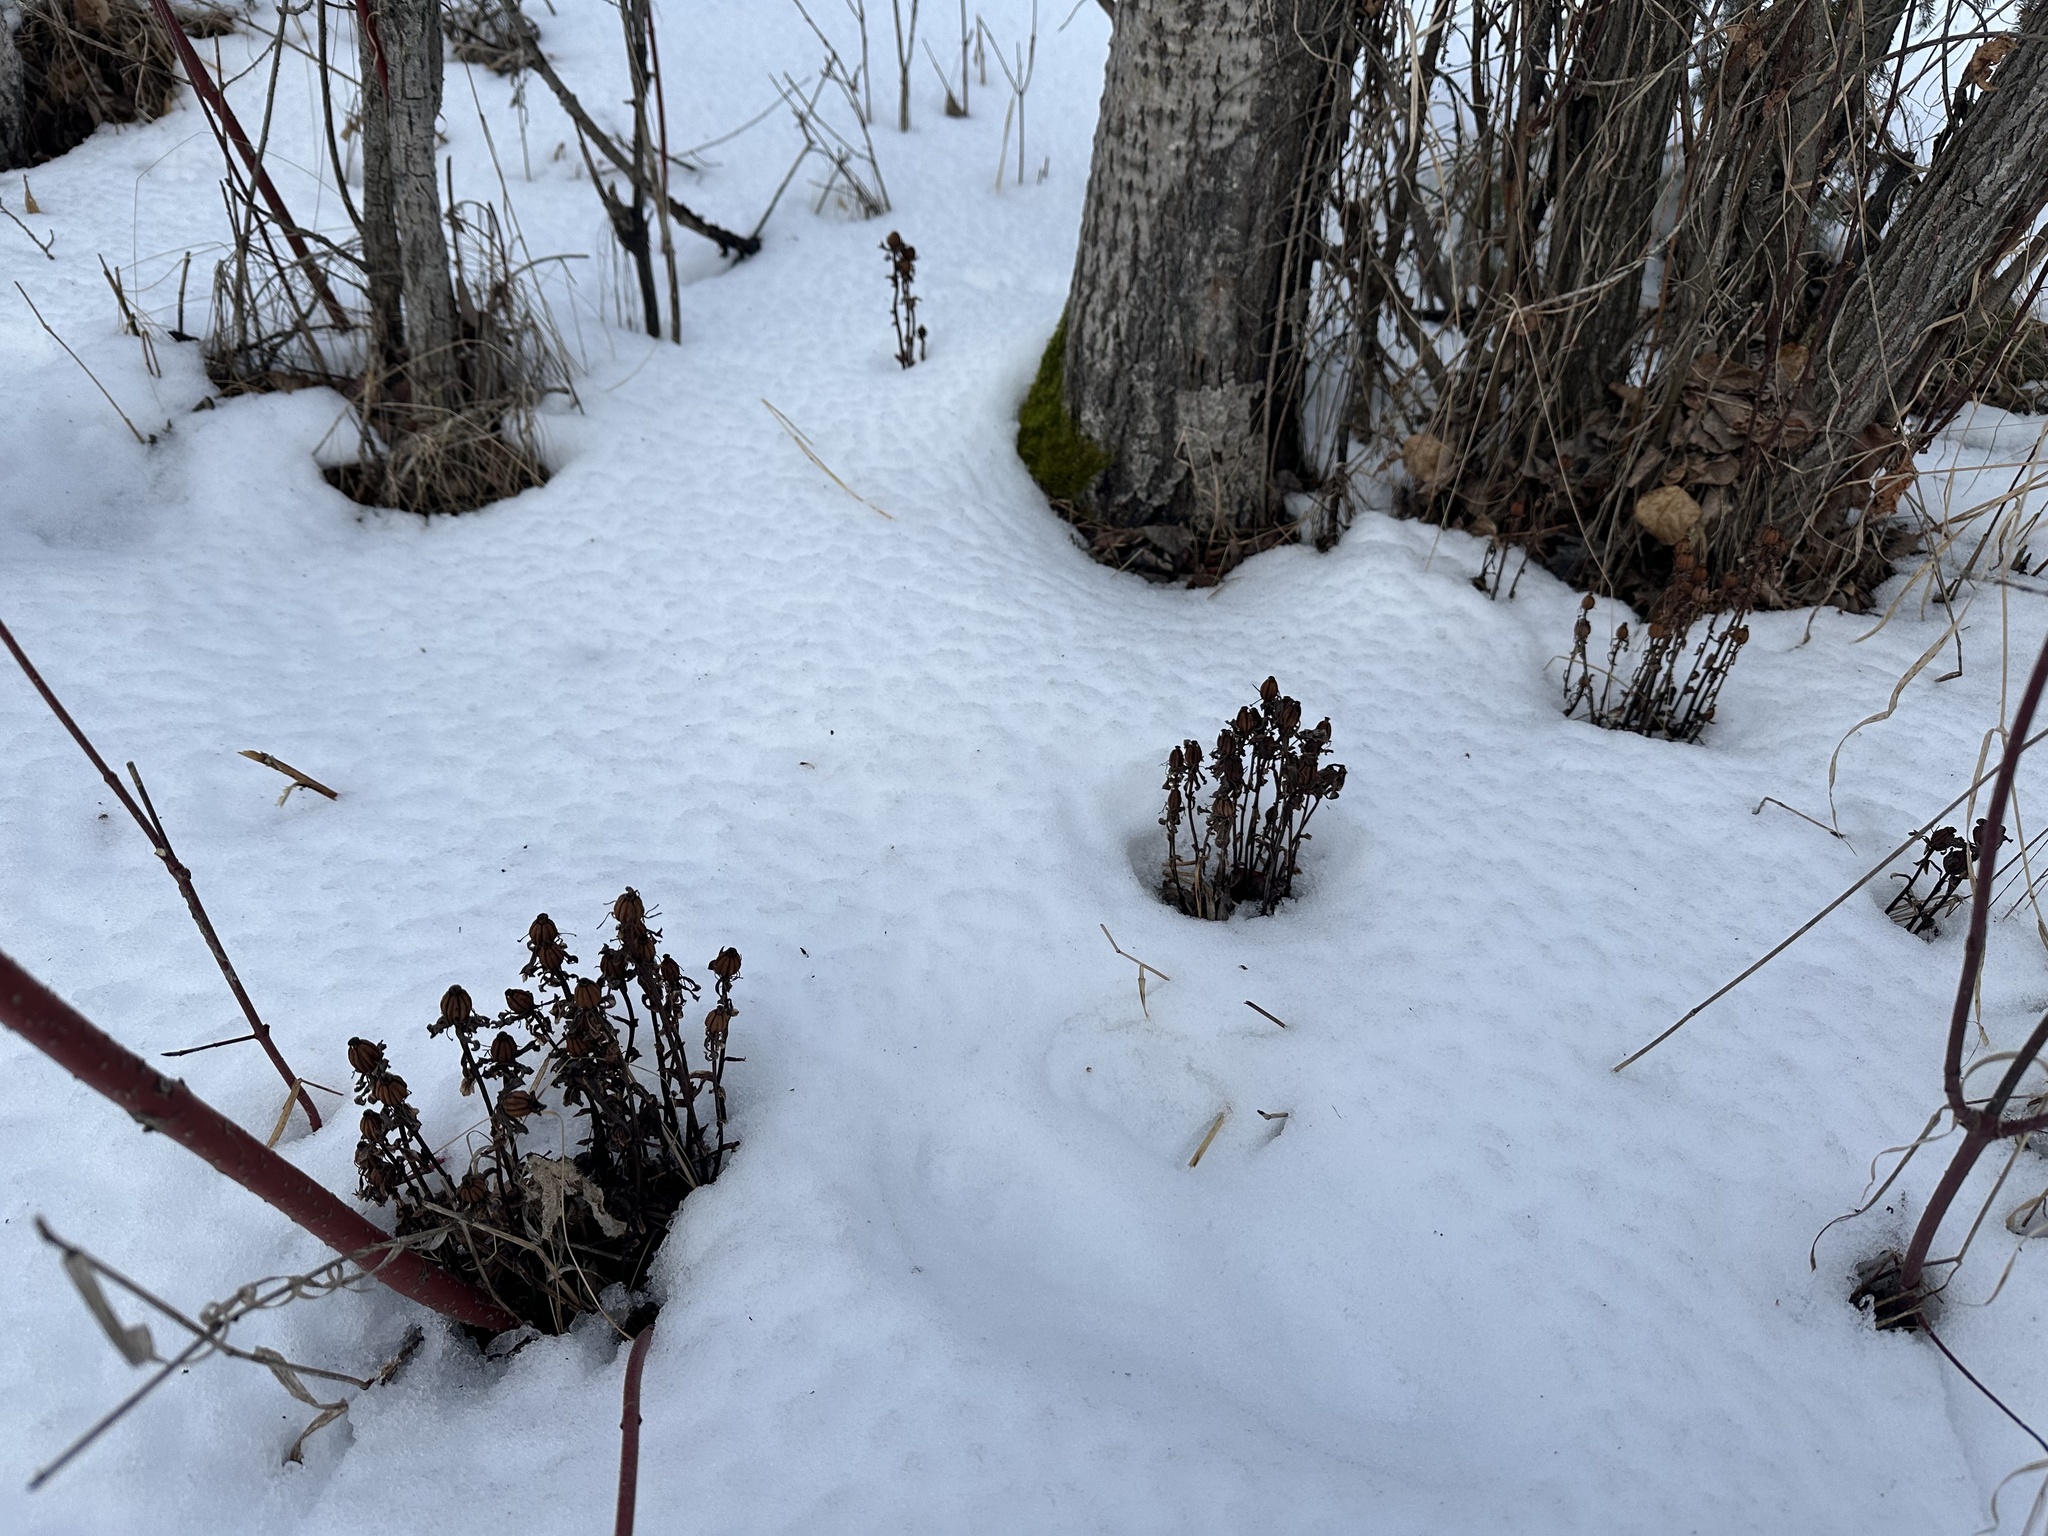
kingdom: Plantae
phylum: Tracheophyta
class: Magnoliopsida
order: Ericales
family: Ericaceae
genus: Monotropa
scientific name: Monotropa uniflora
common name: Convulsion root
